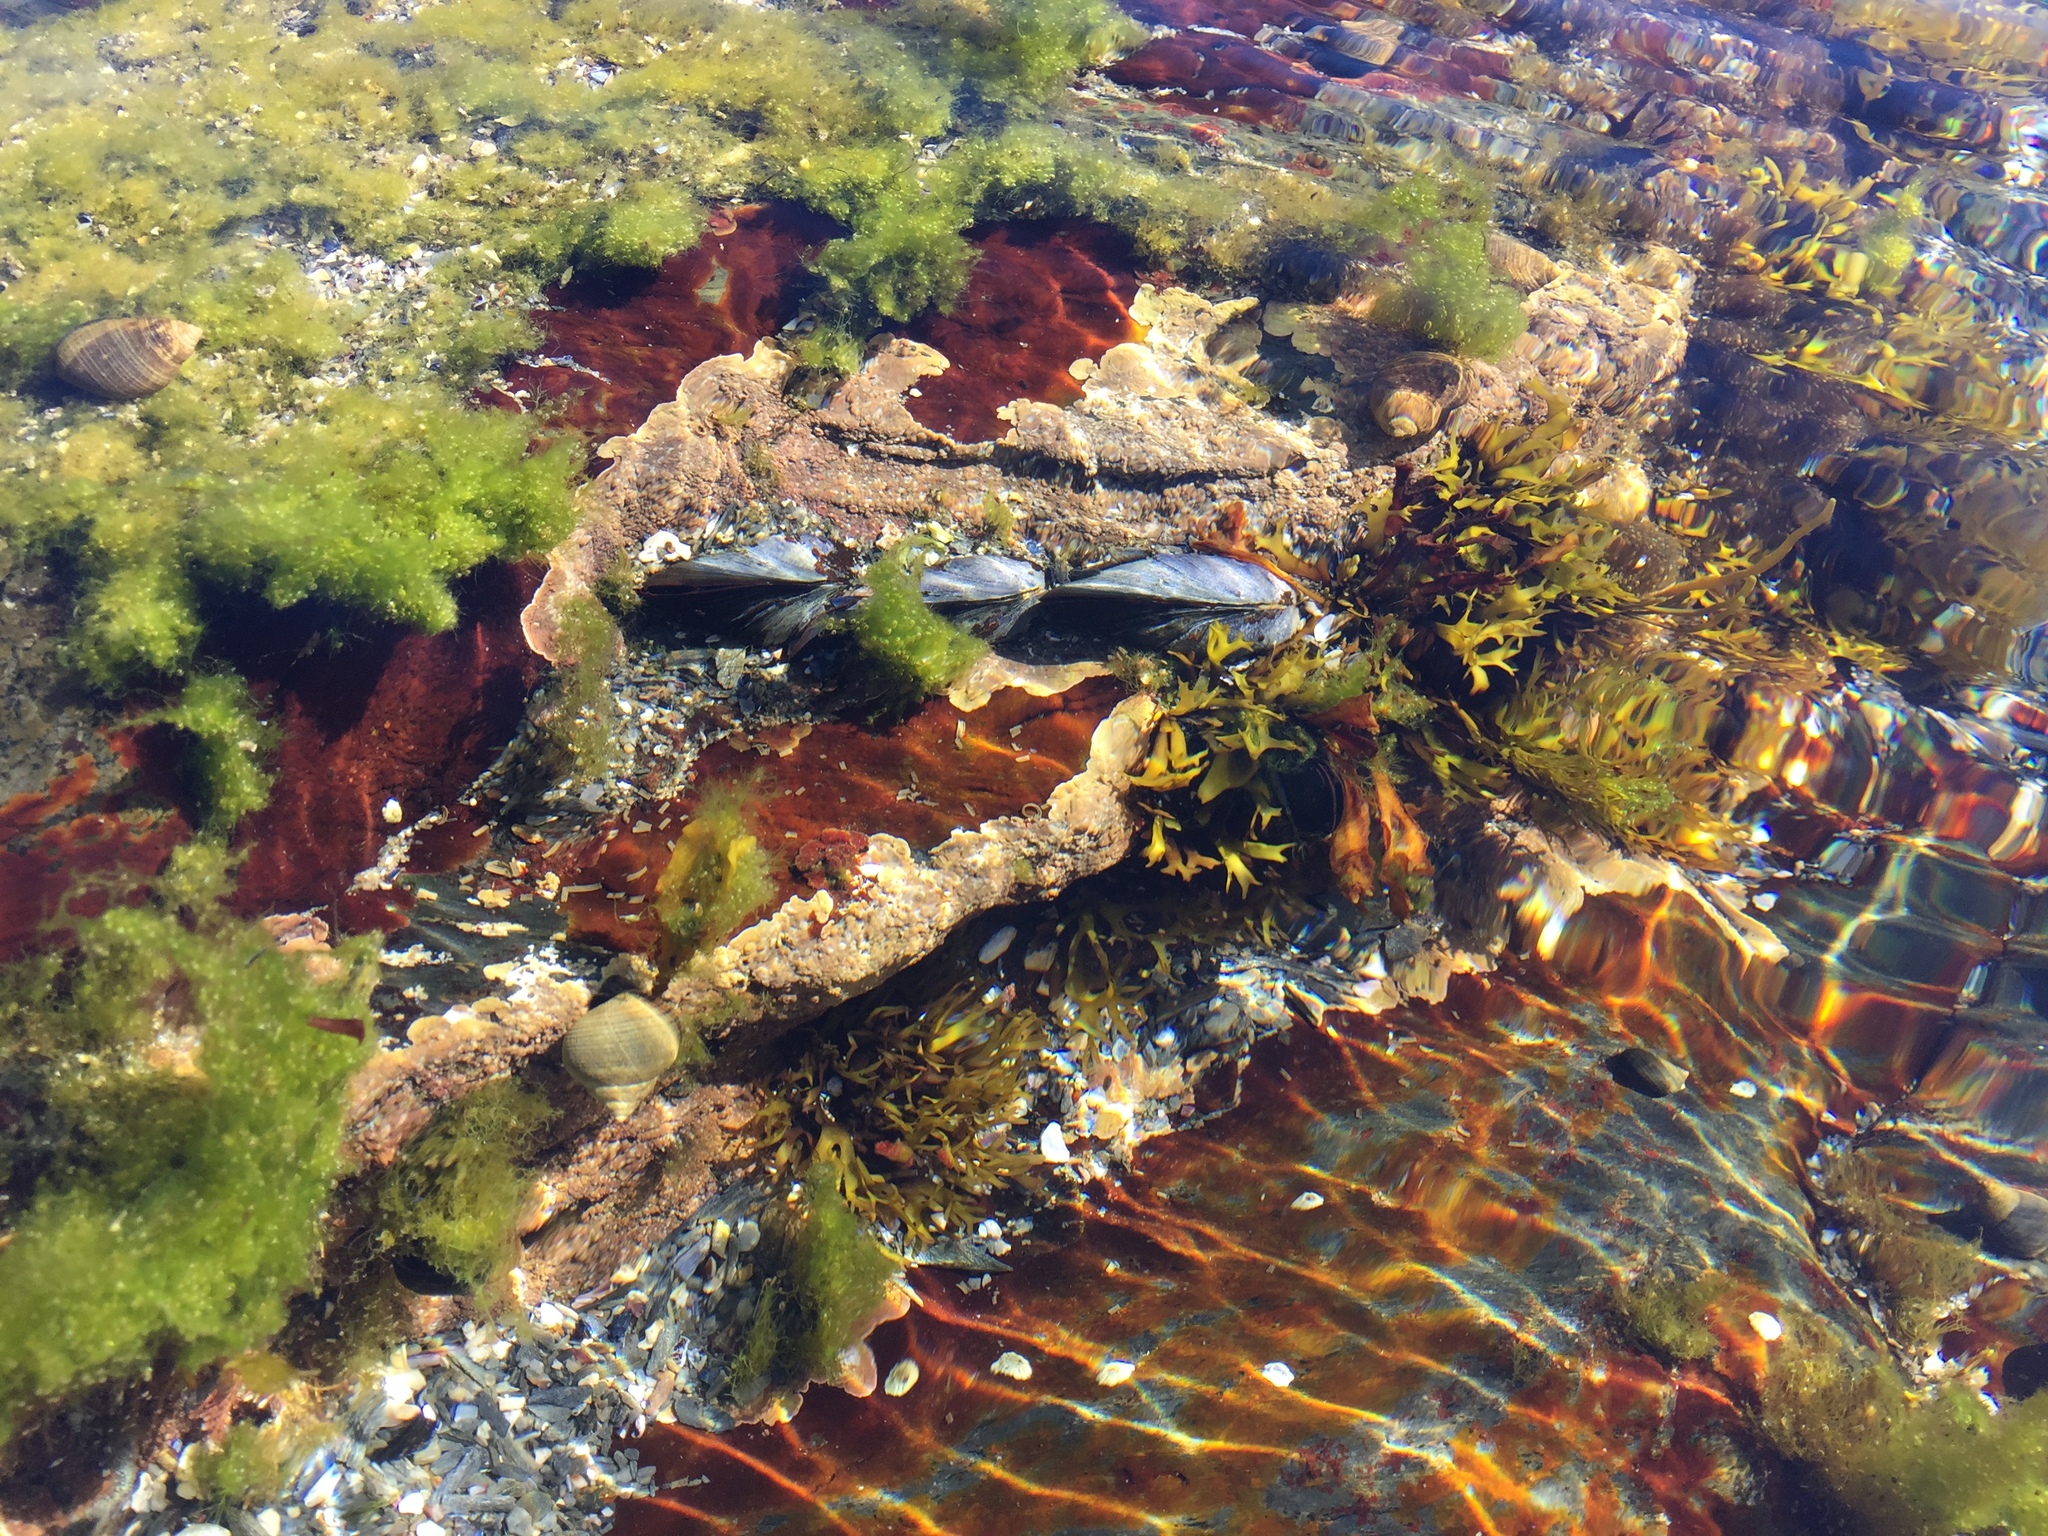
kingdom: Animalia
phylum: Mollusca
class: Bivalvia
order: Mytilida
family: Mytilidae
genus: Mytilus
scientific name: Mytilus edulis
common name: Blue mussel
